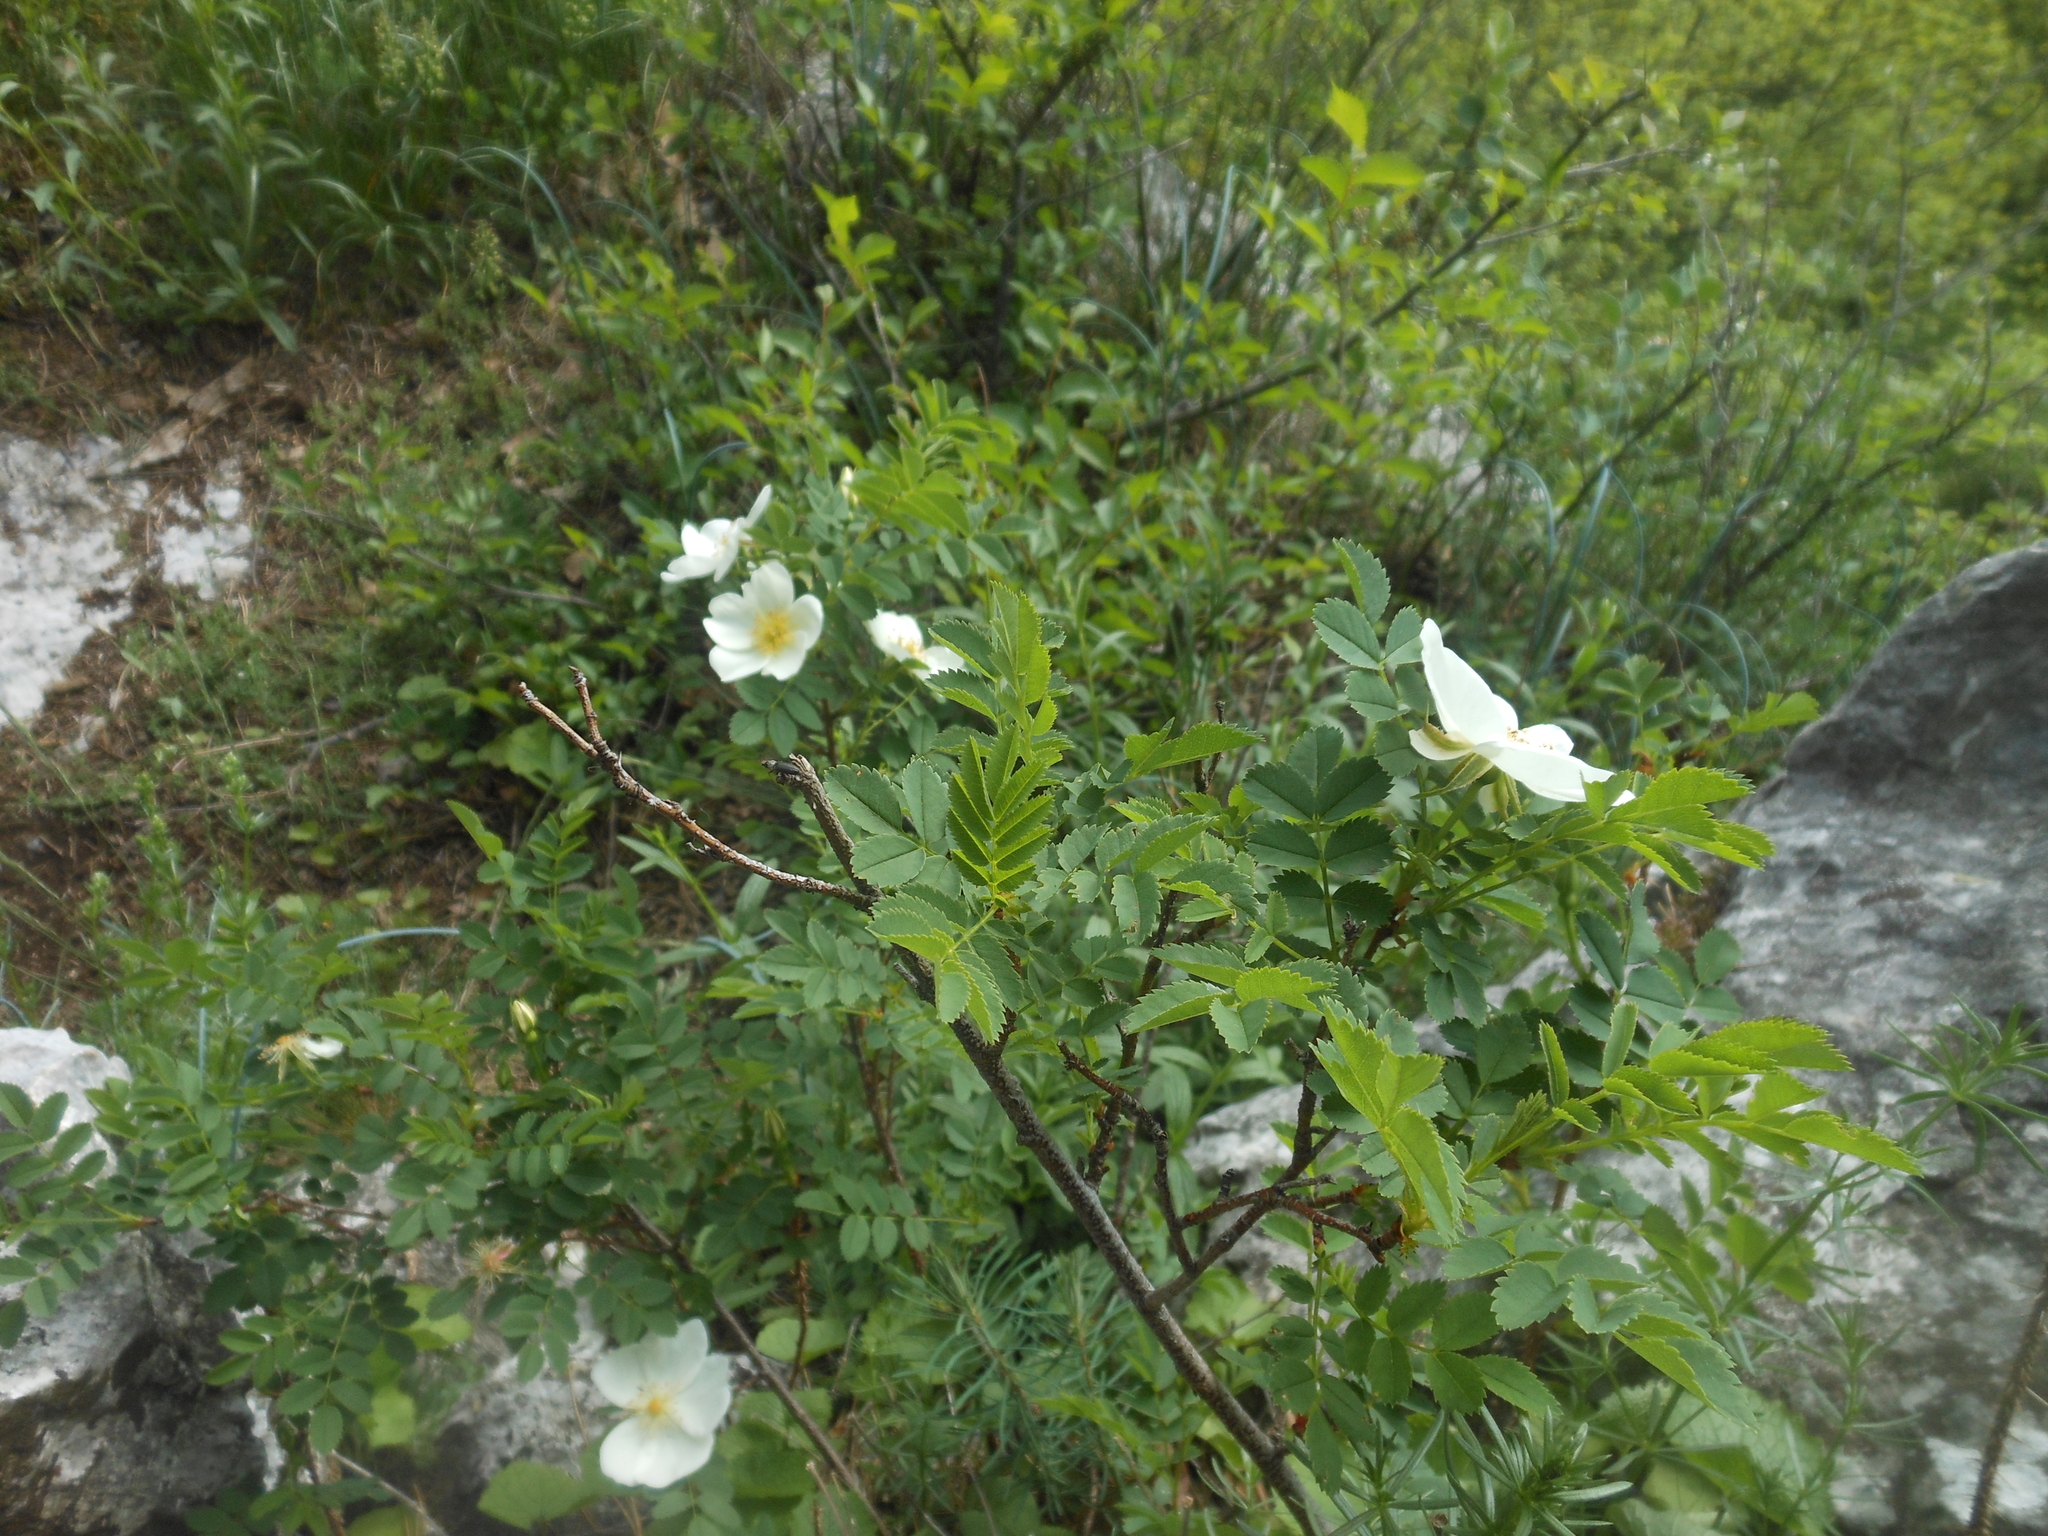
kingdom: Plantae
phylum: Tracheophyta
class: Magnoliopsida
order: Rosales
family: Rosaceae
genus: Rosa
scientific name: Rosa spinosissima
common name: Burnet rose
